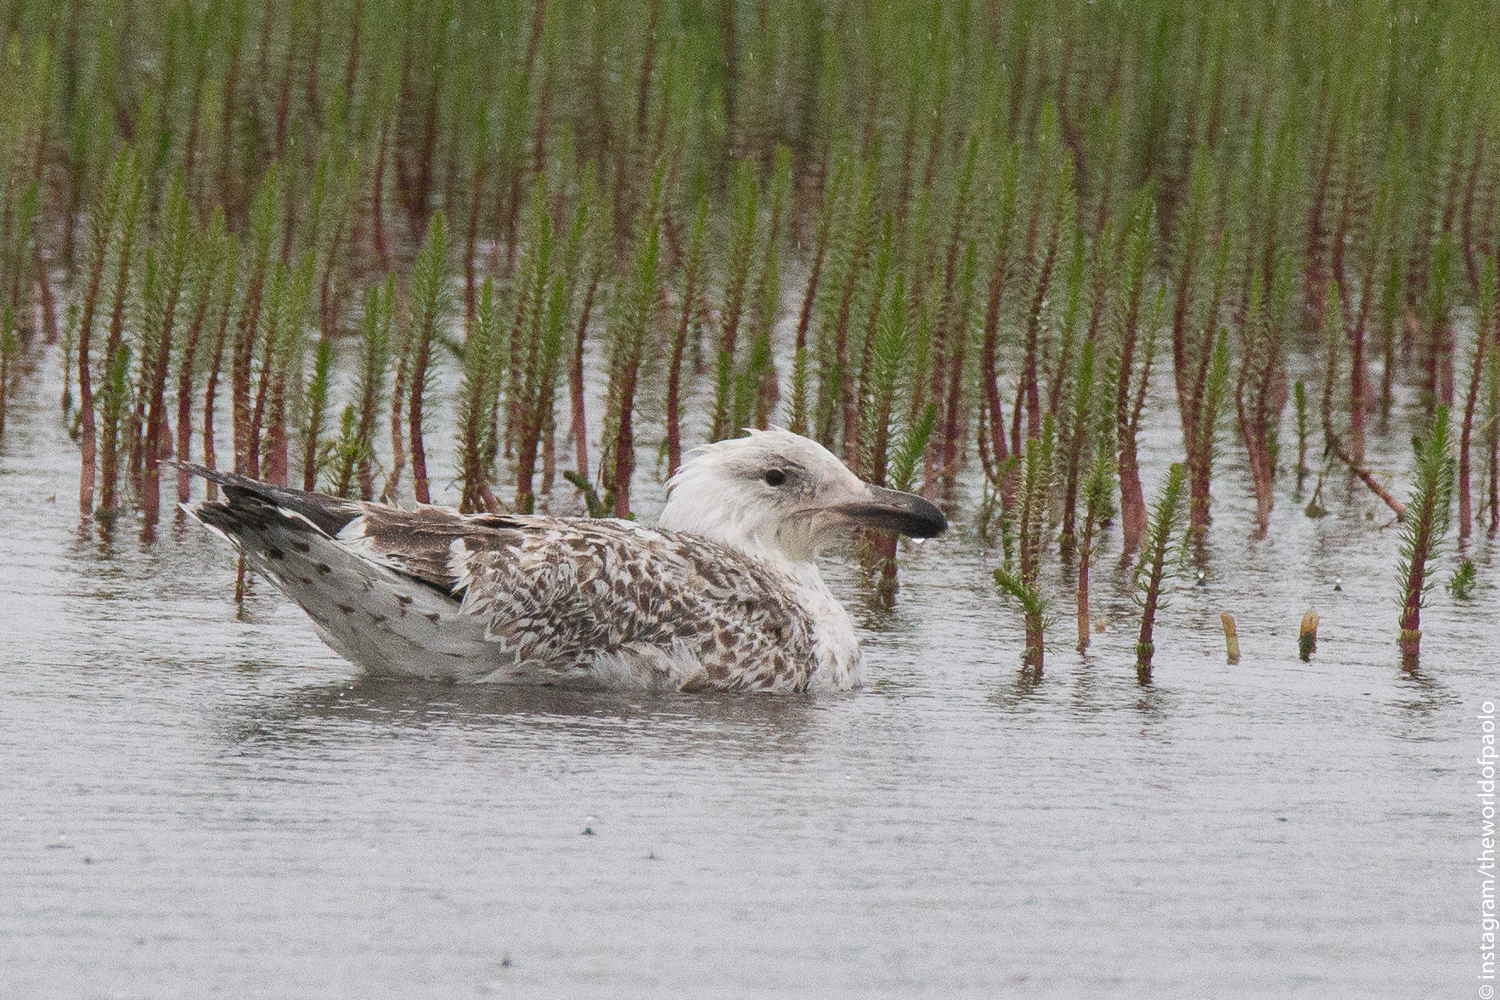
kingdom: Animalia
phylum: Chordata
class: Aves
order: Charadriiformes
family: Laridae
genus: Larus
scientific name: Larus marinus
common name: Great black-backed gull
